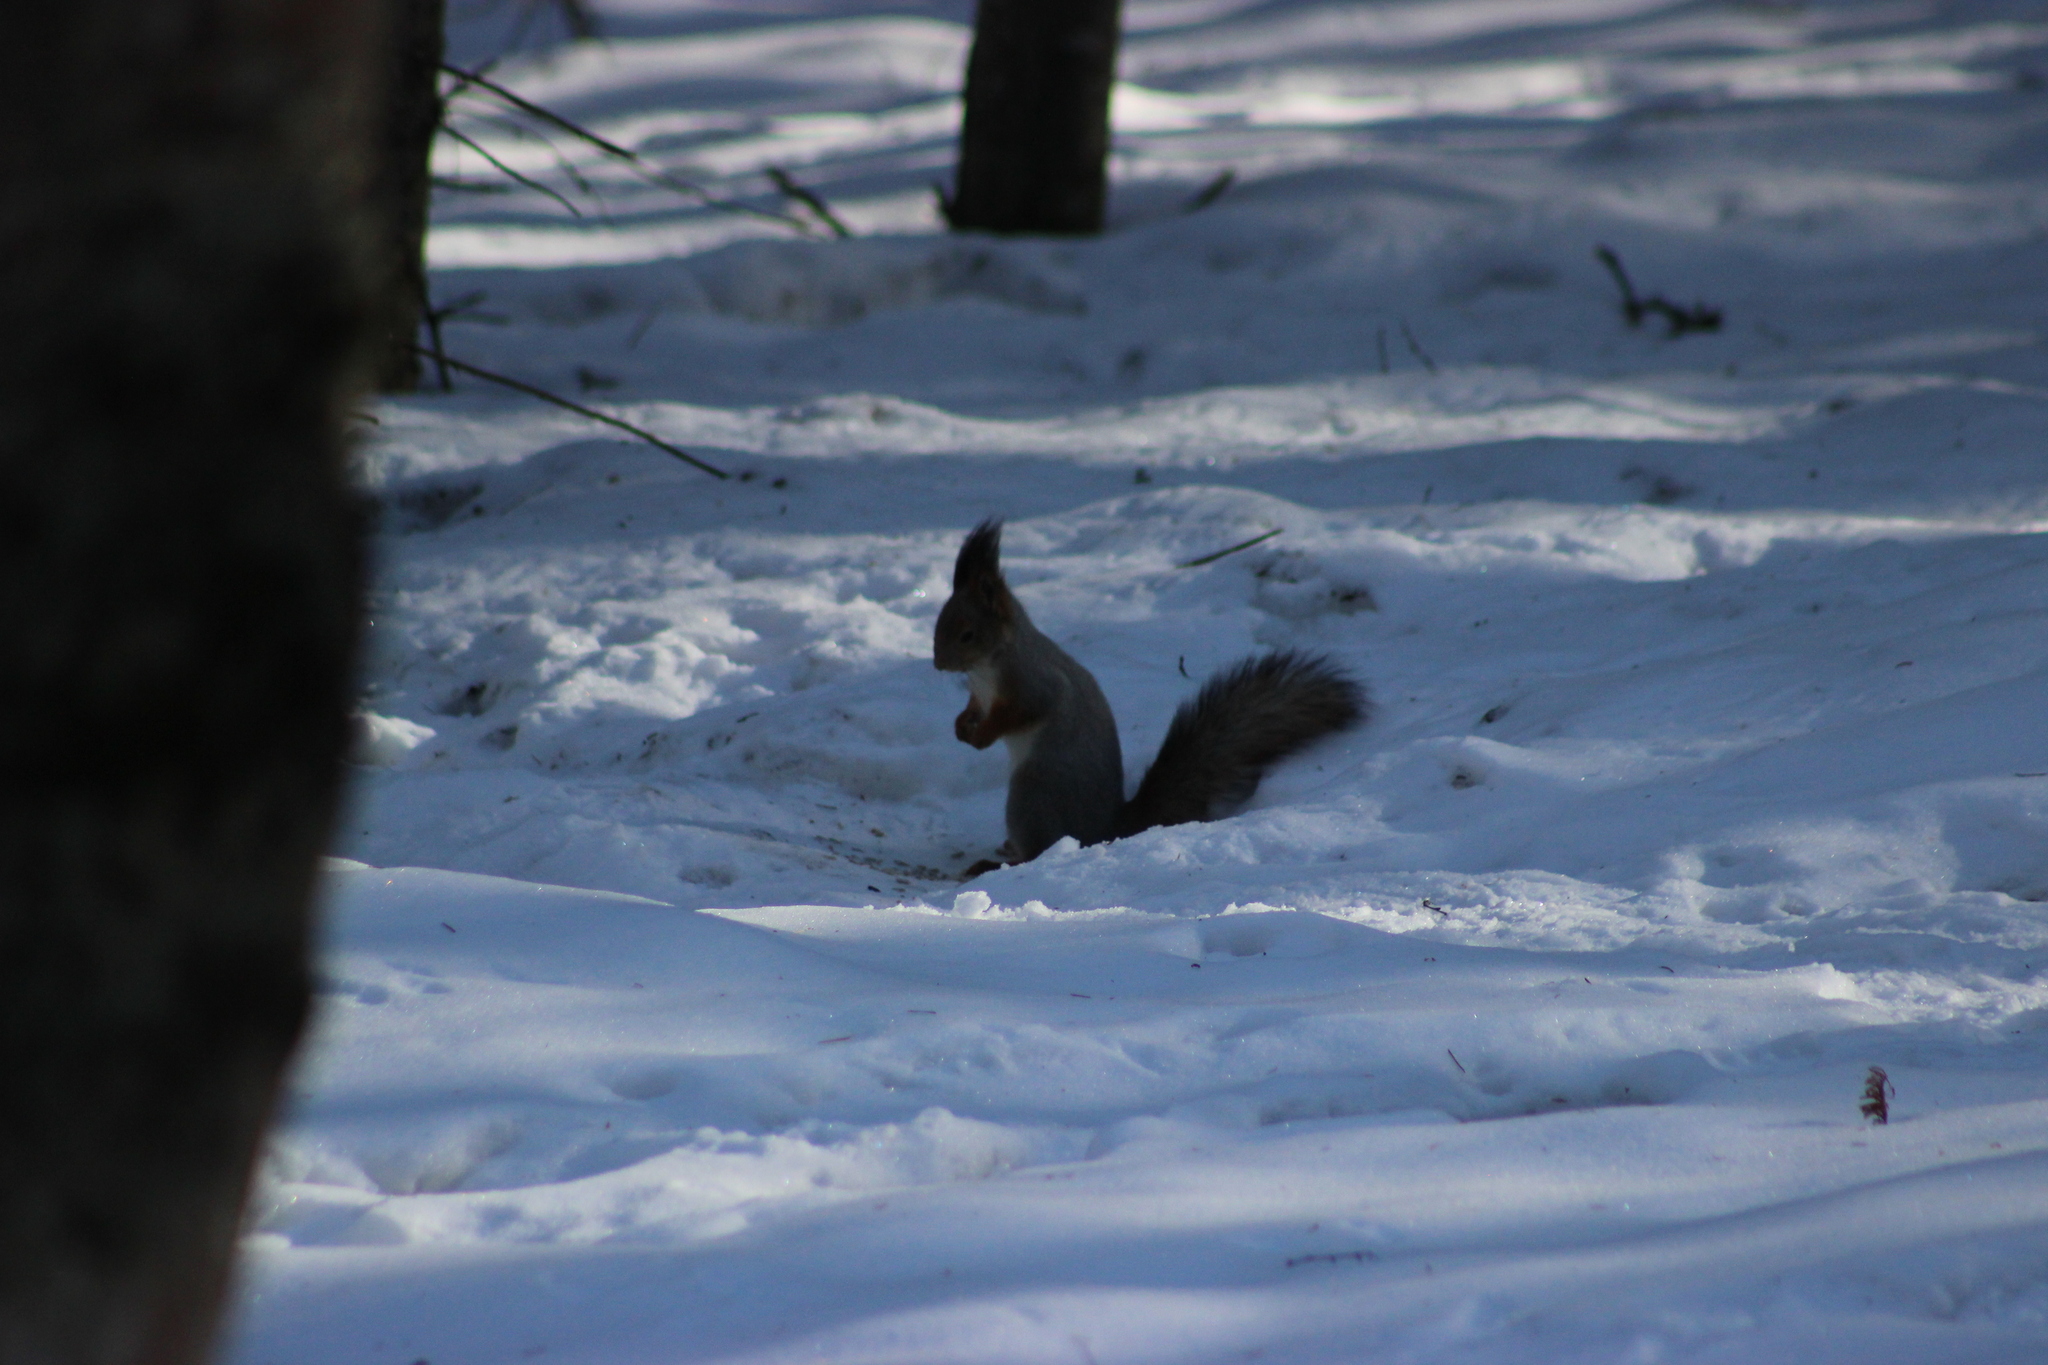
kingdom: Animalia
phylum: Chordata
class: Mammalia
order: Rodentia
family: Sciuridae
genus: Sciurus
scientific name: Sciurus vulgaris
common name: Eurasian red squirrel
